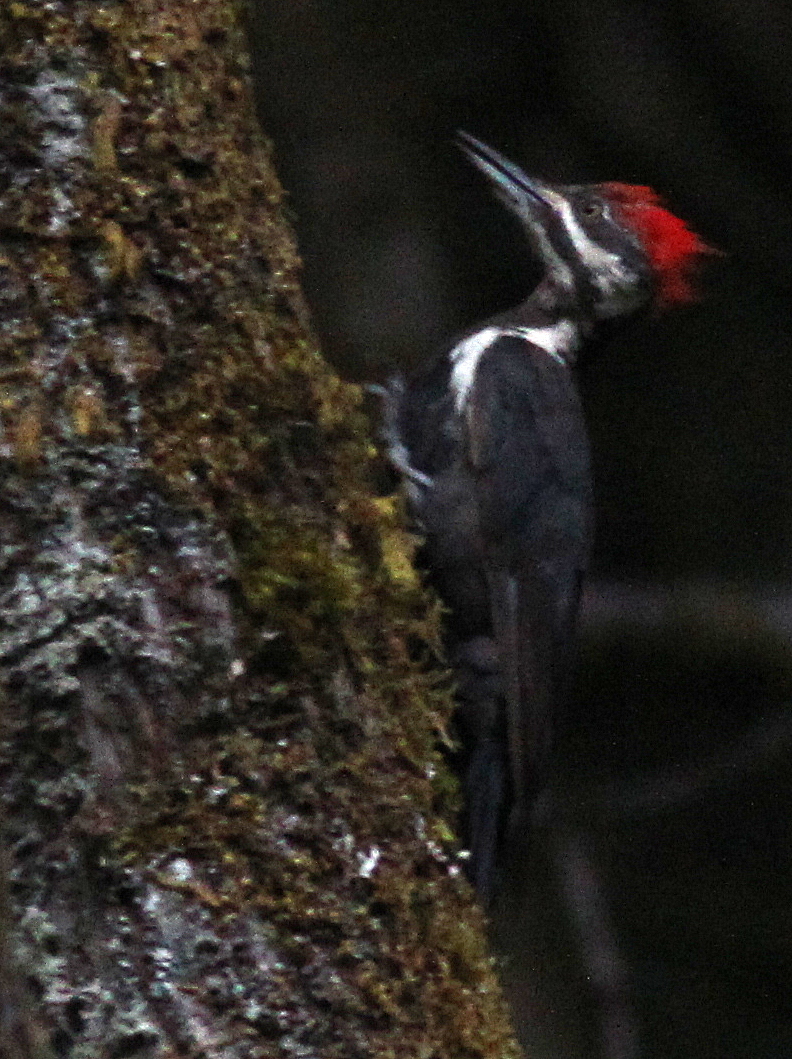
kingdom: Animalia
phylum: Chordata
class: Aves
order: Piciformes
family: Picidae
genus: Dryocopus
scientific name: Dryocopus pileatus
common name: Pileated woodpecker
